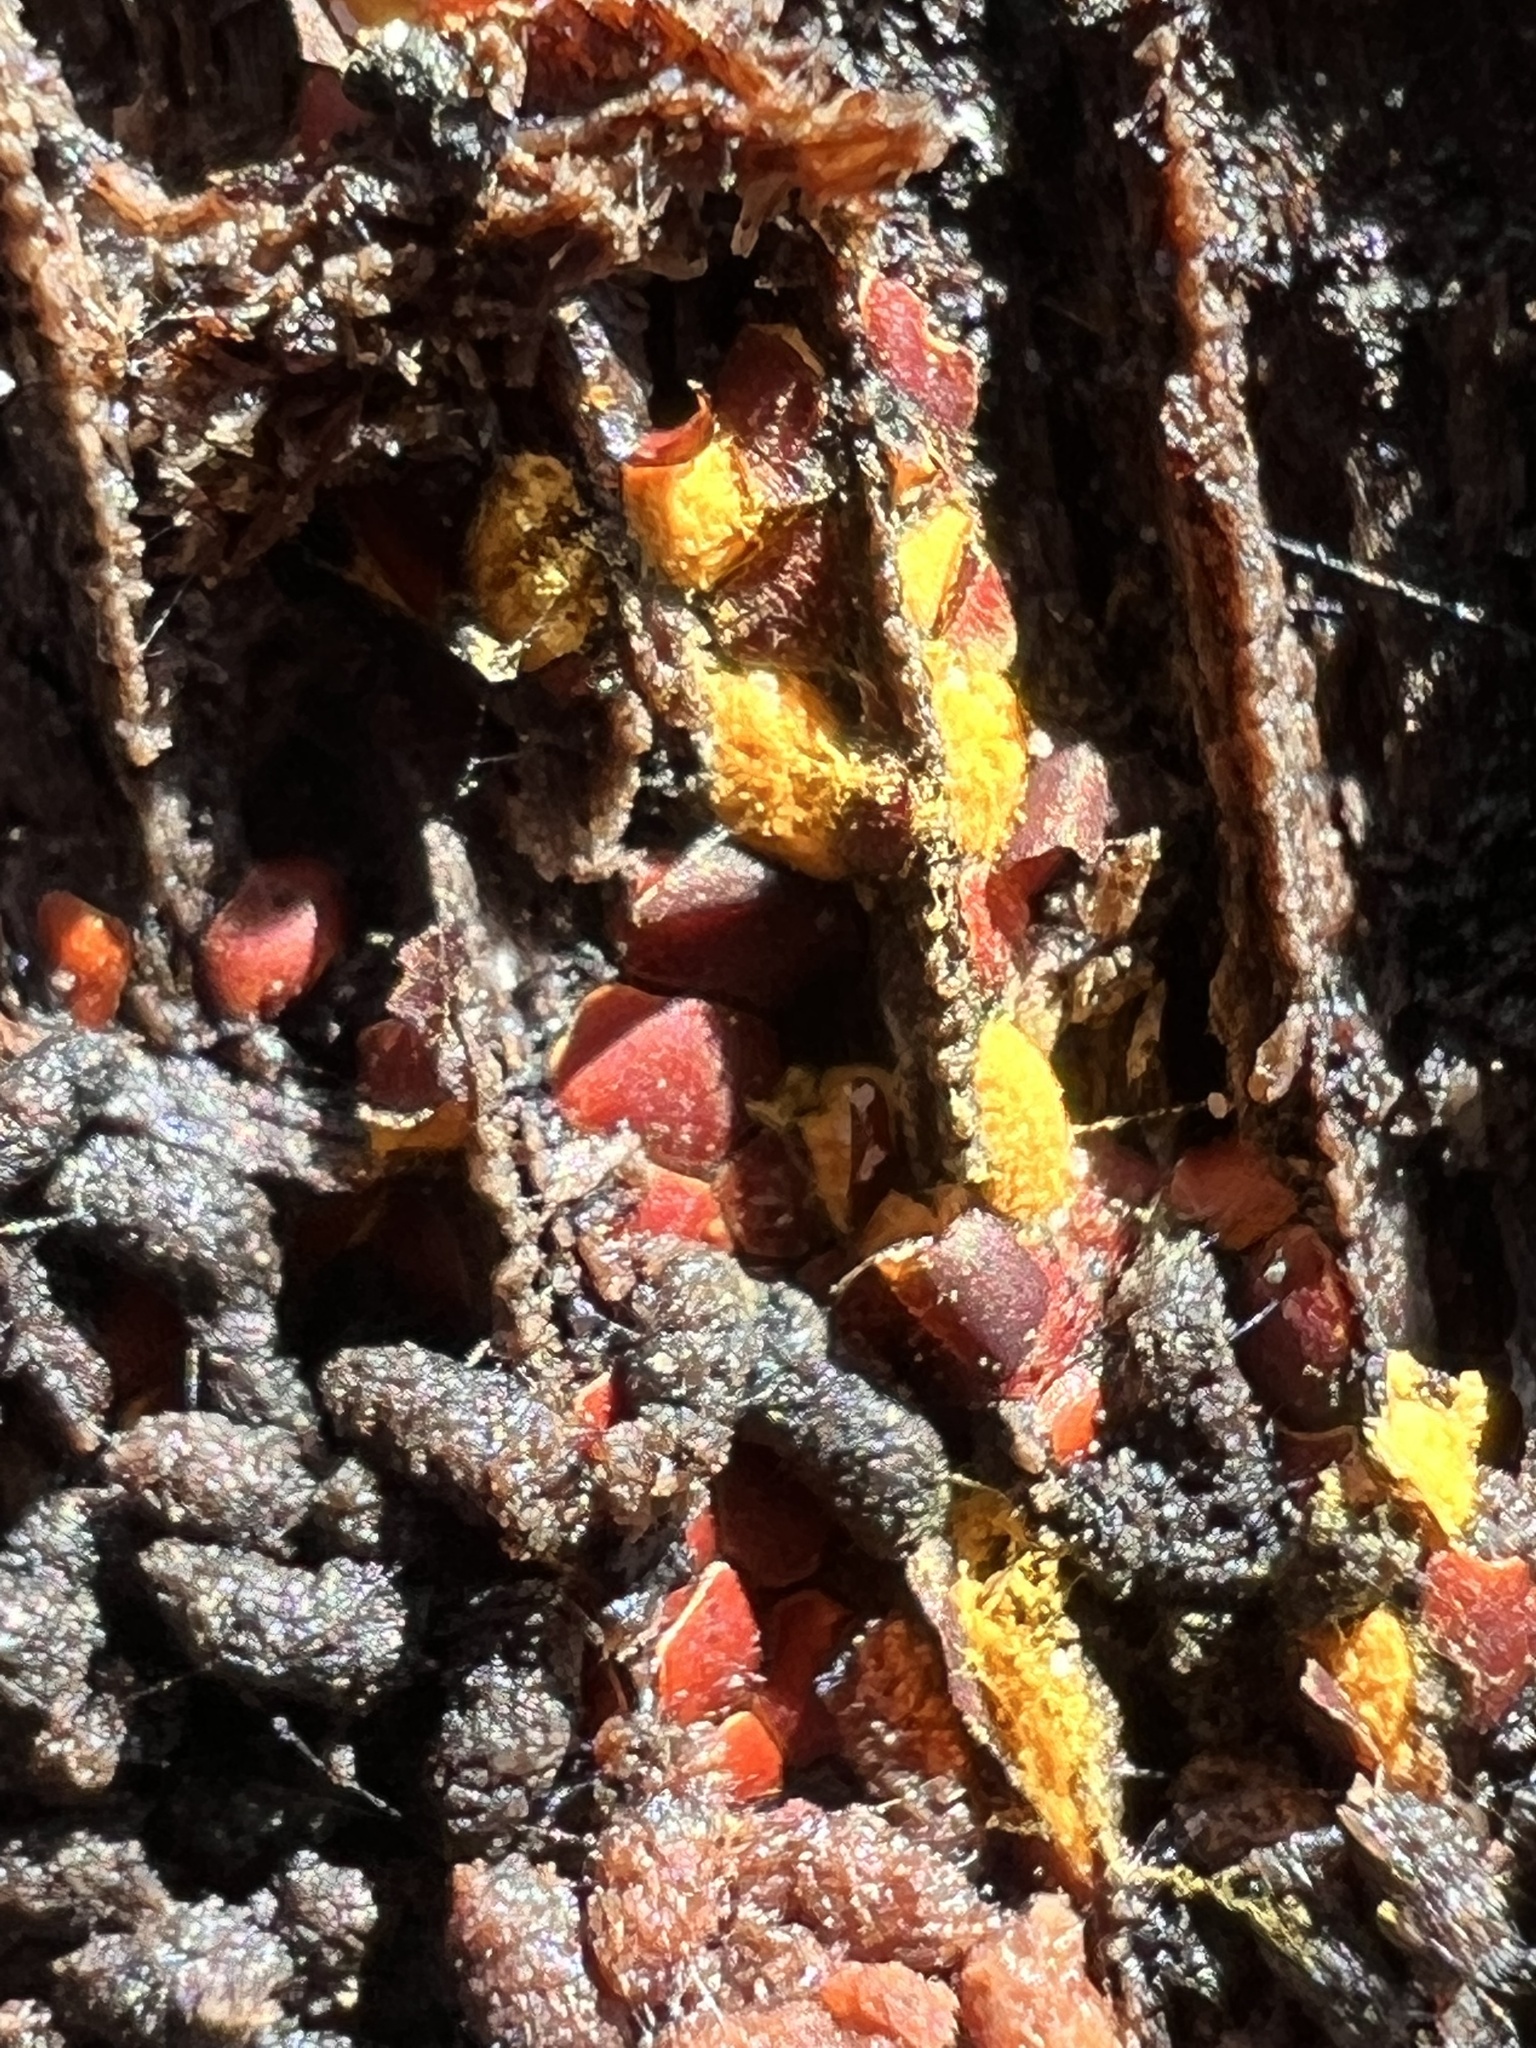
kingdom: Protozoa
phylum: Mycetozoa
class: Myxomycetes
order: Trichiales
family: Trichiaceae
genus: Perichaena
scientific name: Perichaena depressa
